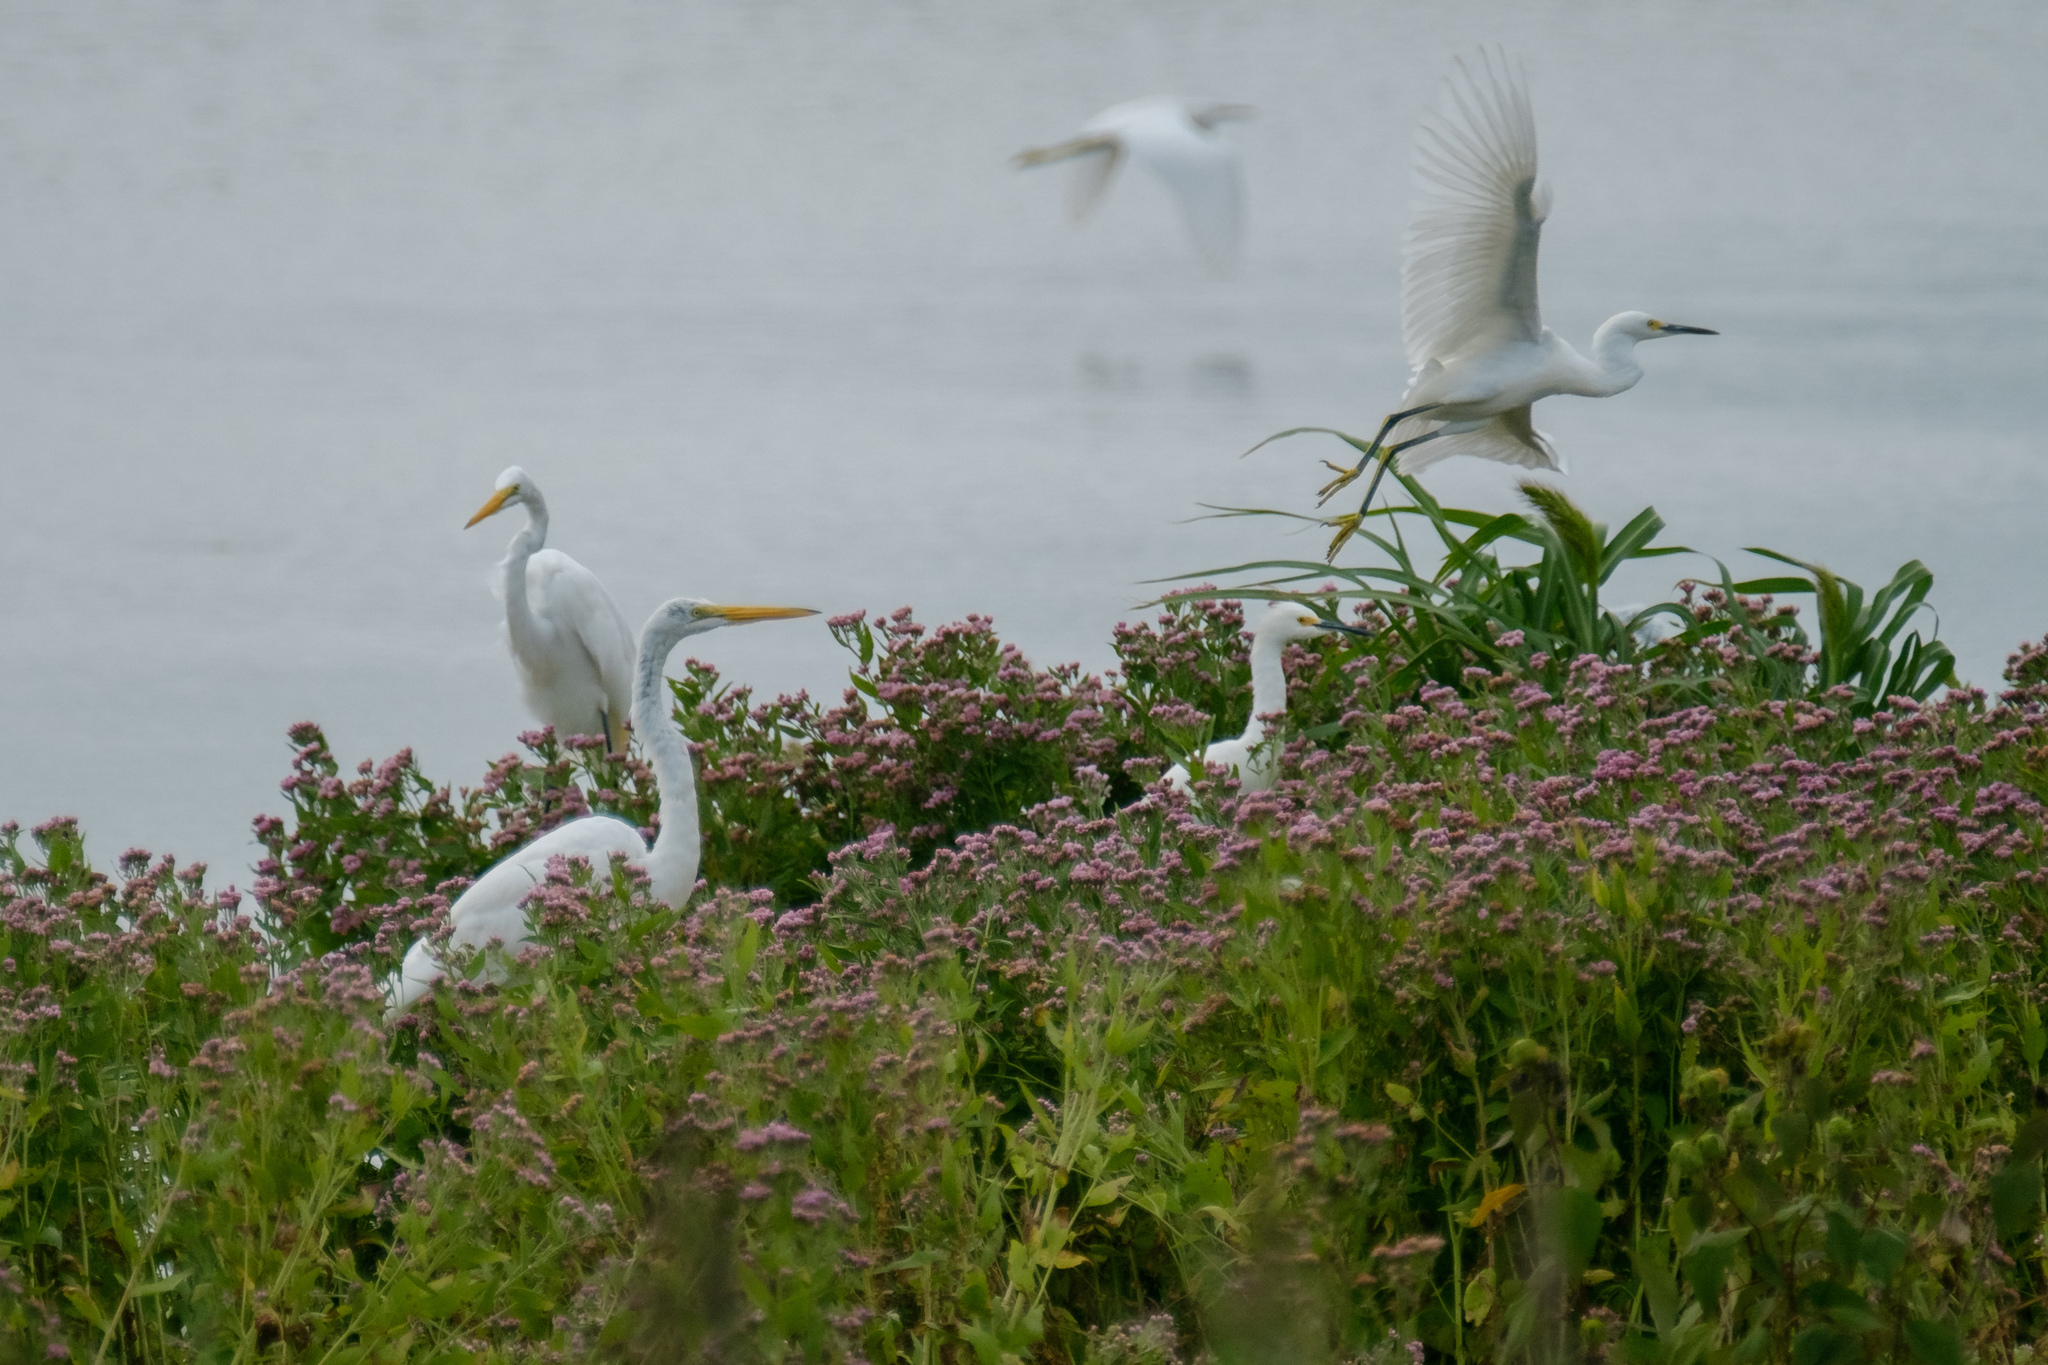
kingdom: Plantae
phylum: Tracheophyta
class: Magnoliopsida
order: Asterales
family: Asteraceae
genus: Pluchea
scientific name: Pluchea odorata
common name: Saltmarsh fleabane
